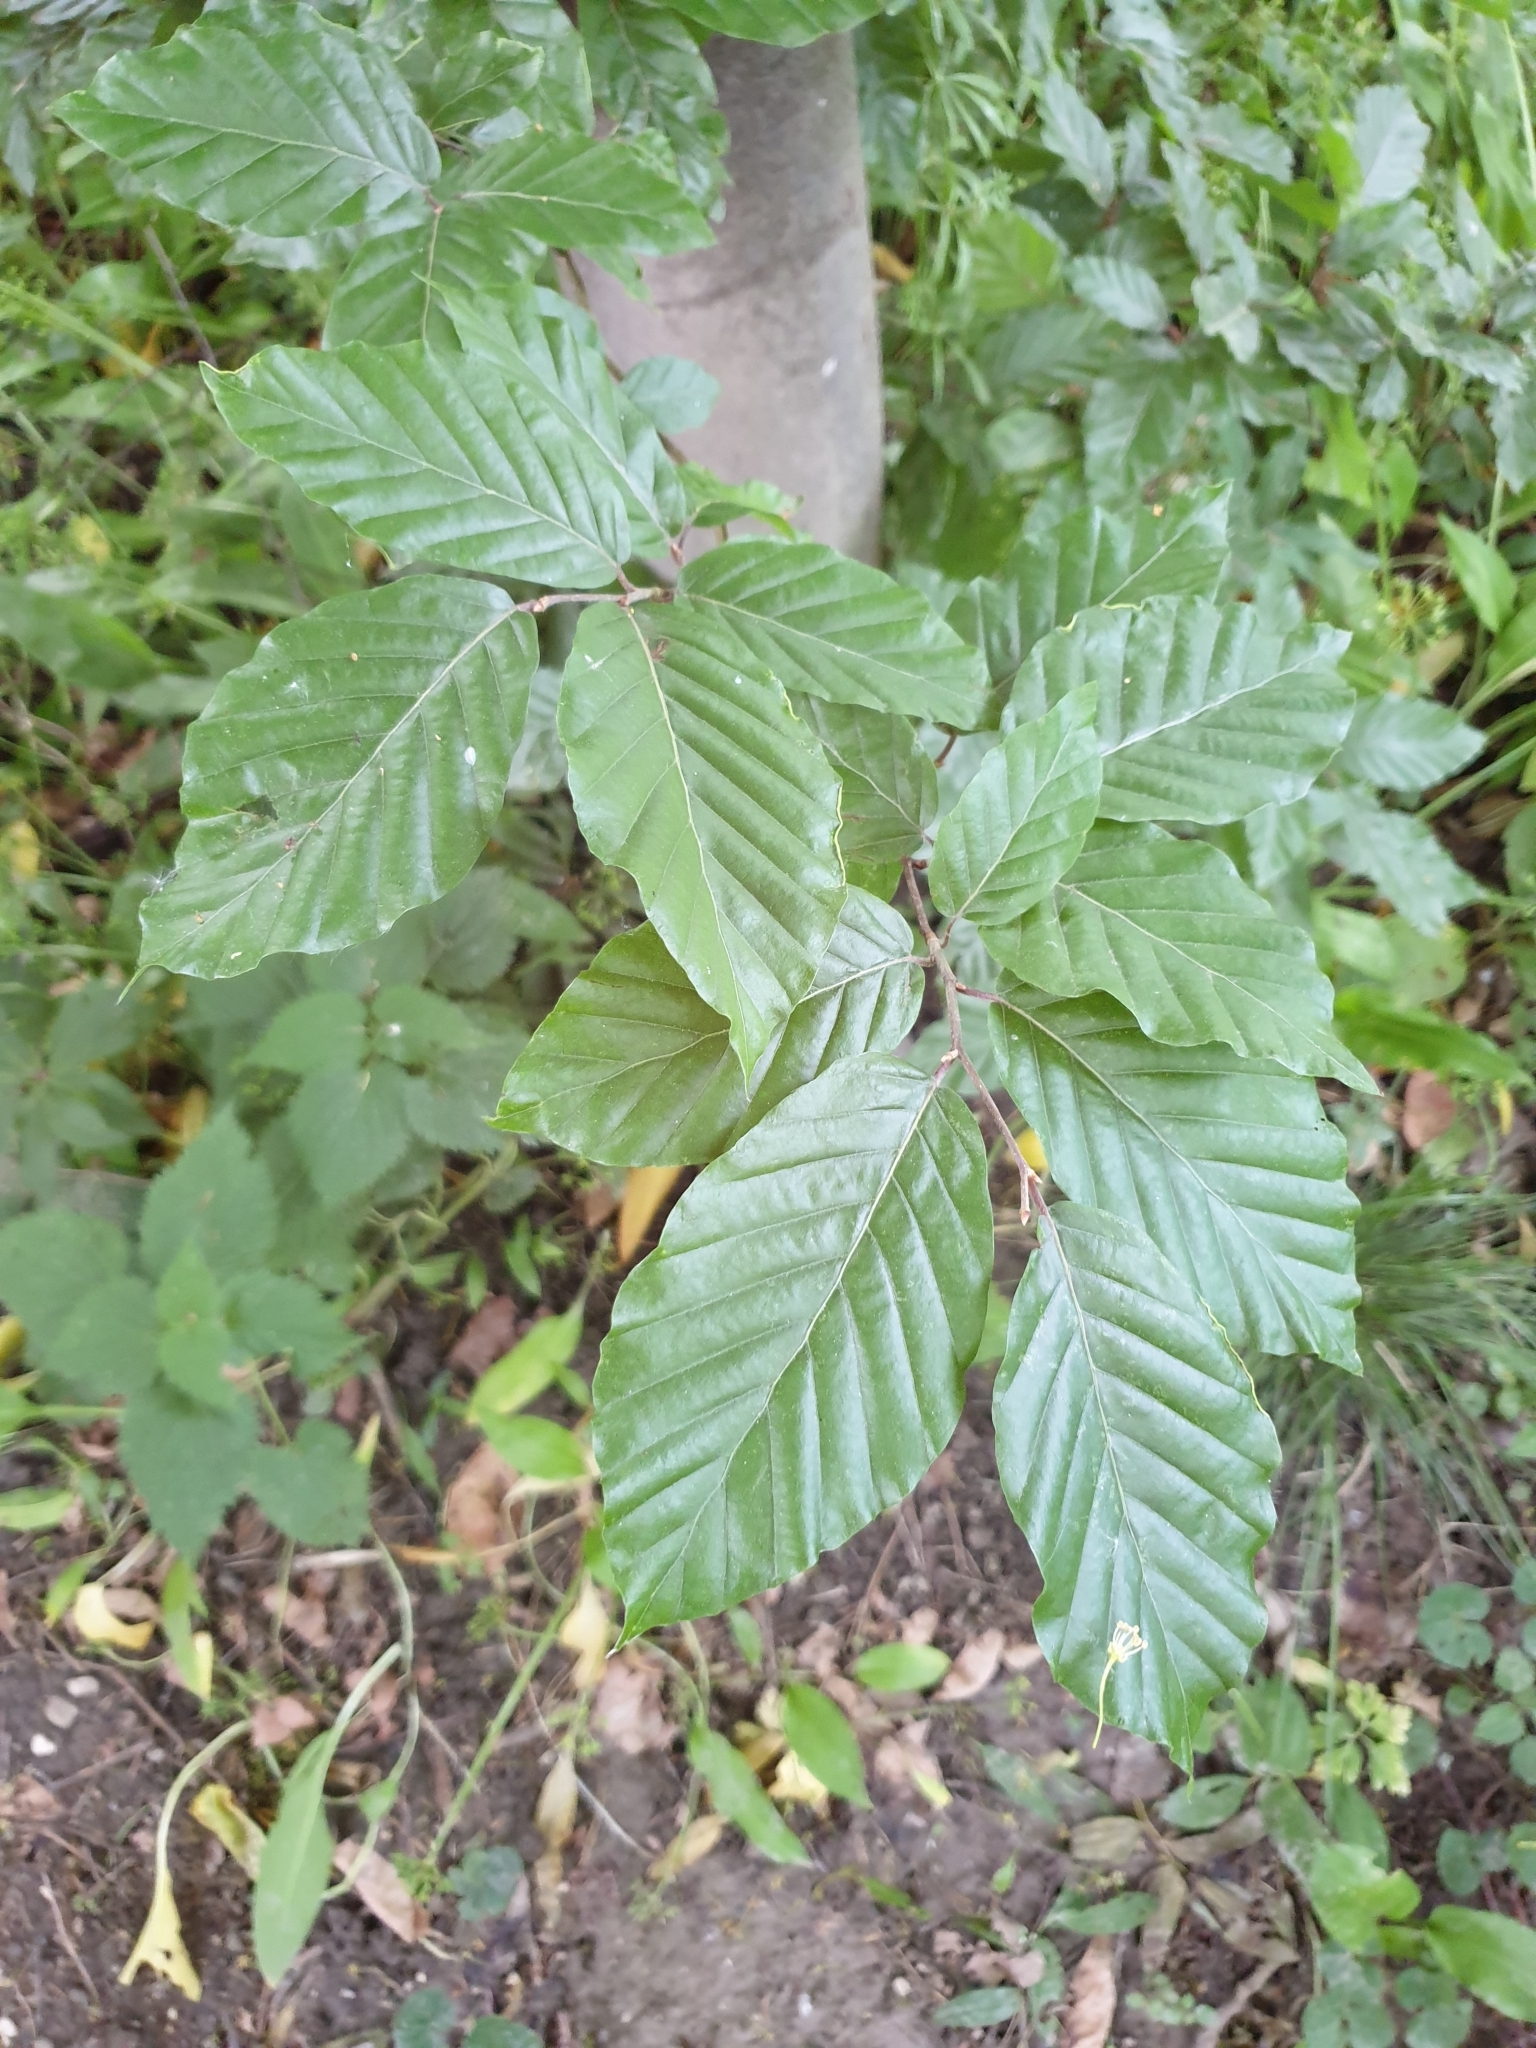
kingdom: Plantae
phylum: Tracheophyta
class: Magnoliopsida
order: Fagales
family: Fagaceae
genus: Fagus
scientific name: Fagus sylvatica
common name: Beech
